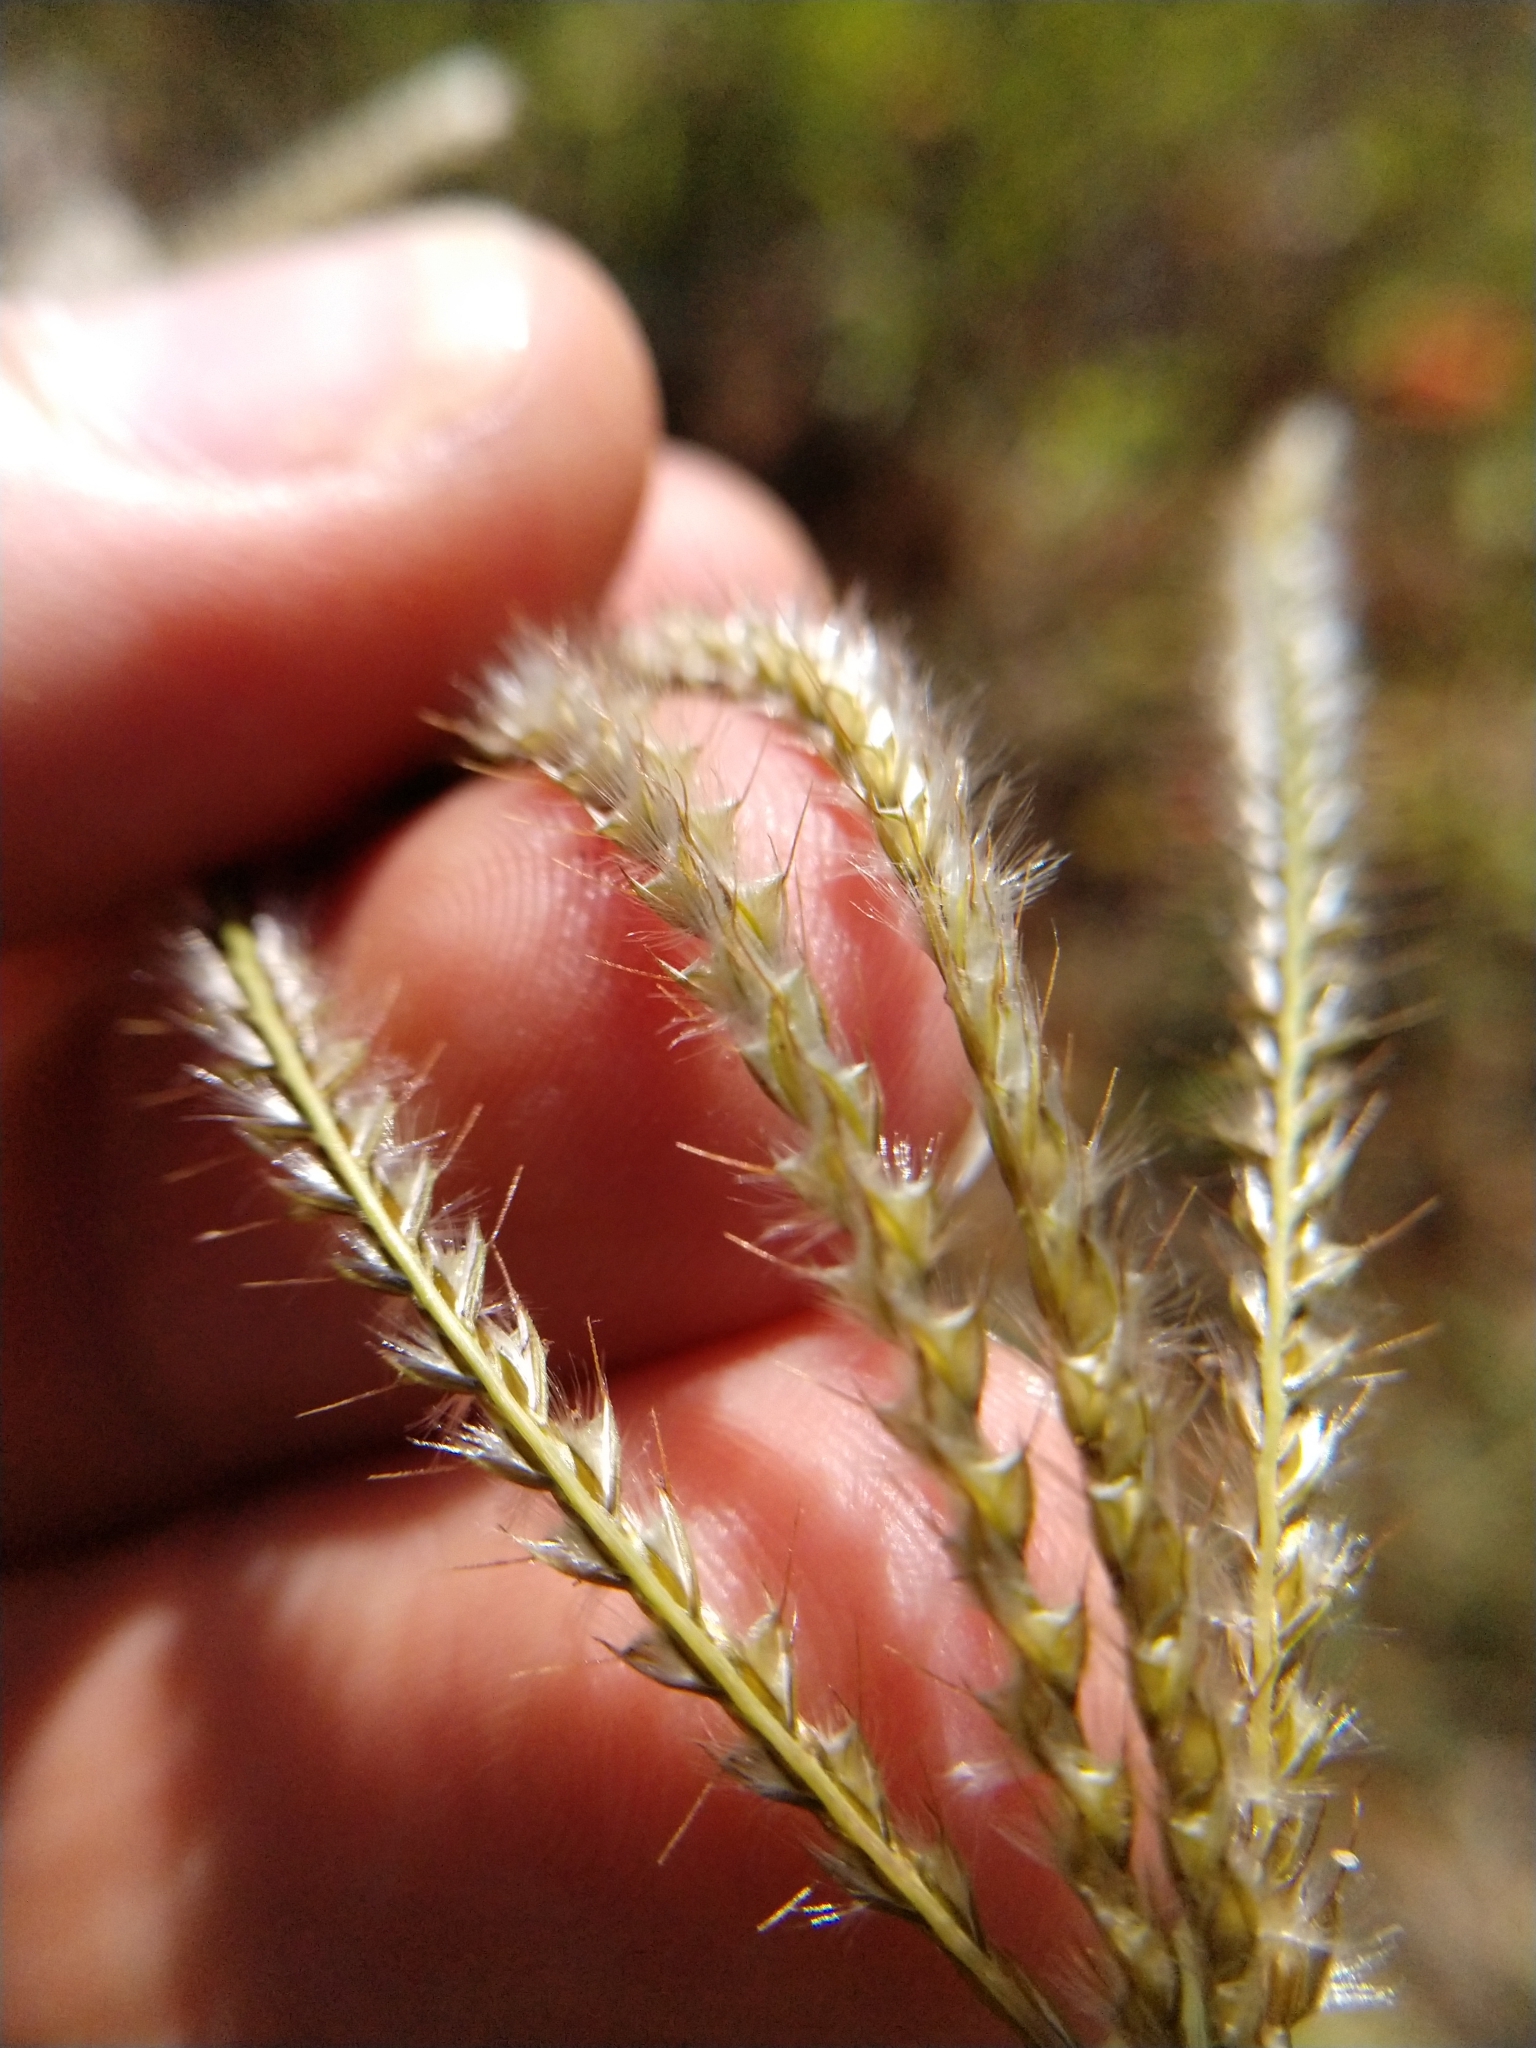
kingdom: Plantae
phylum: Tracheophyta
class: Liliopsida
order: Poales
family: Poaceae
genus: Stapfochloa
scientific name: Stapfochloa canterae
